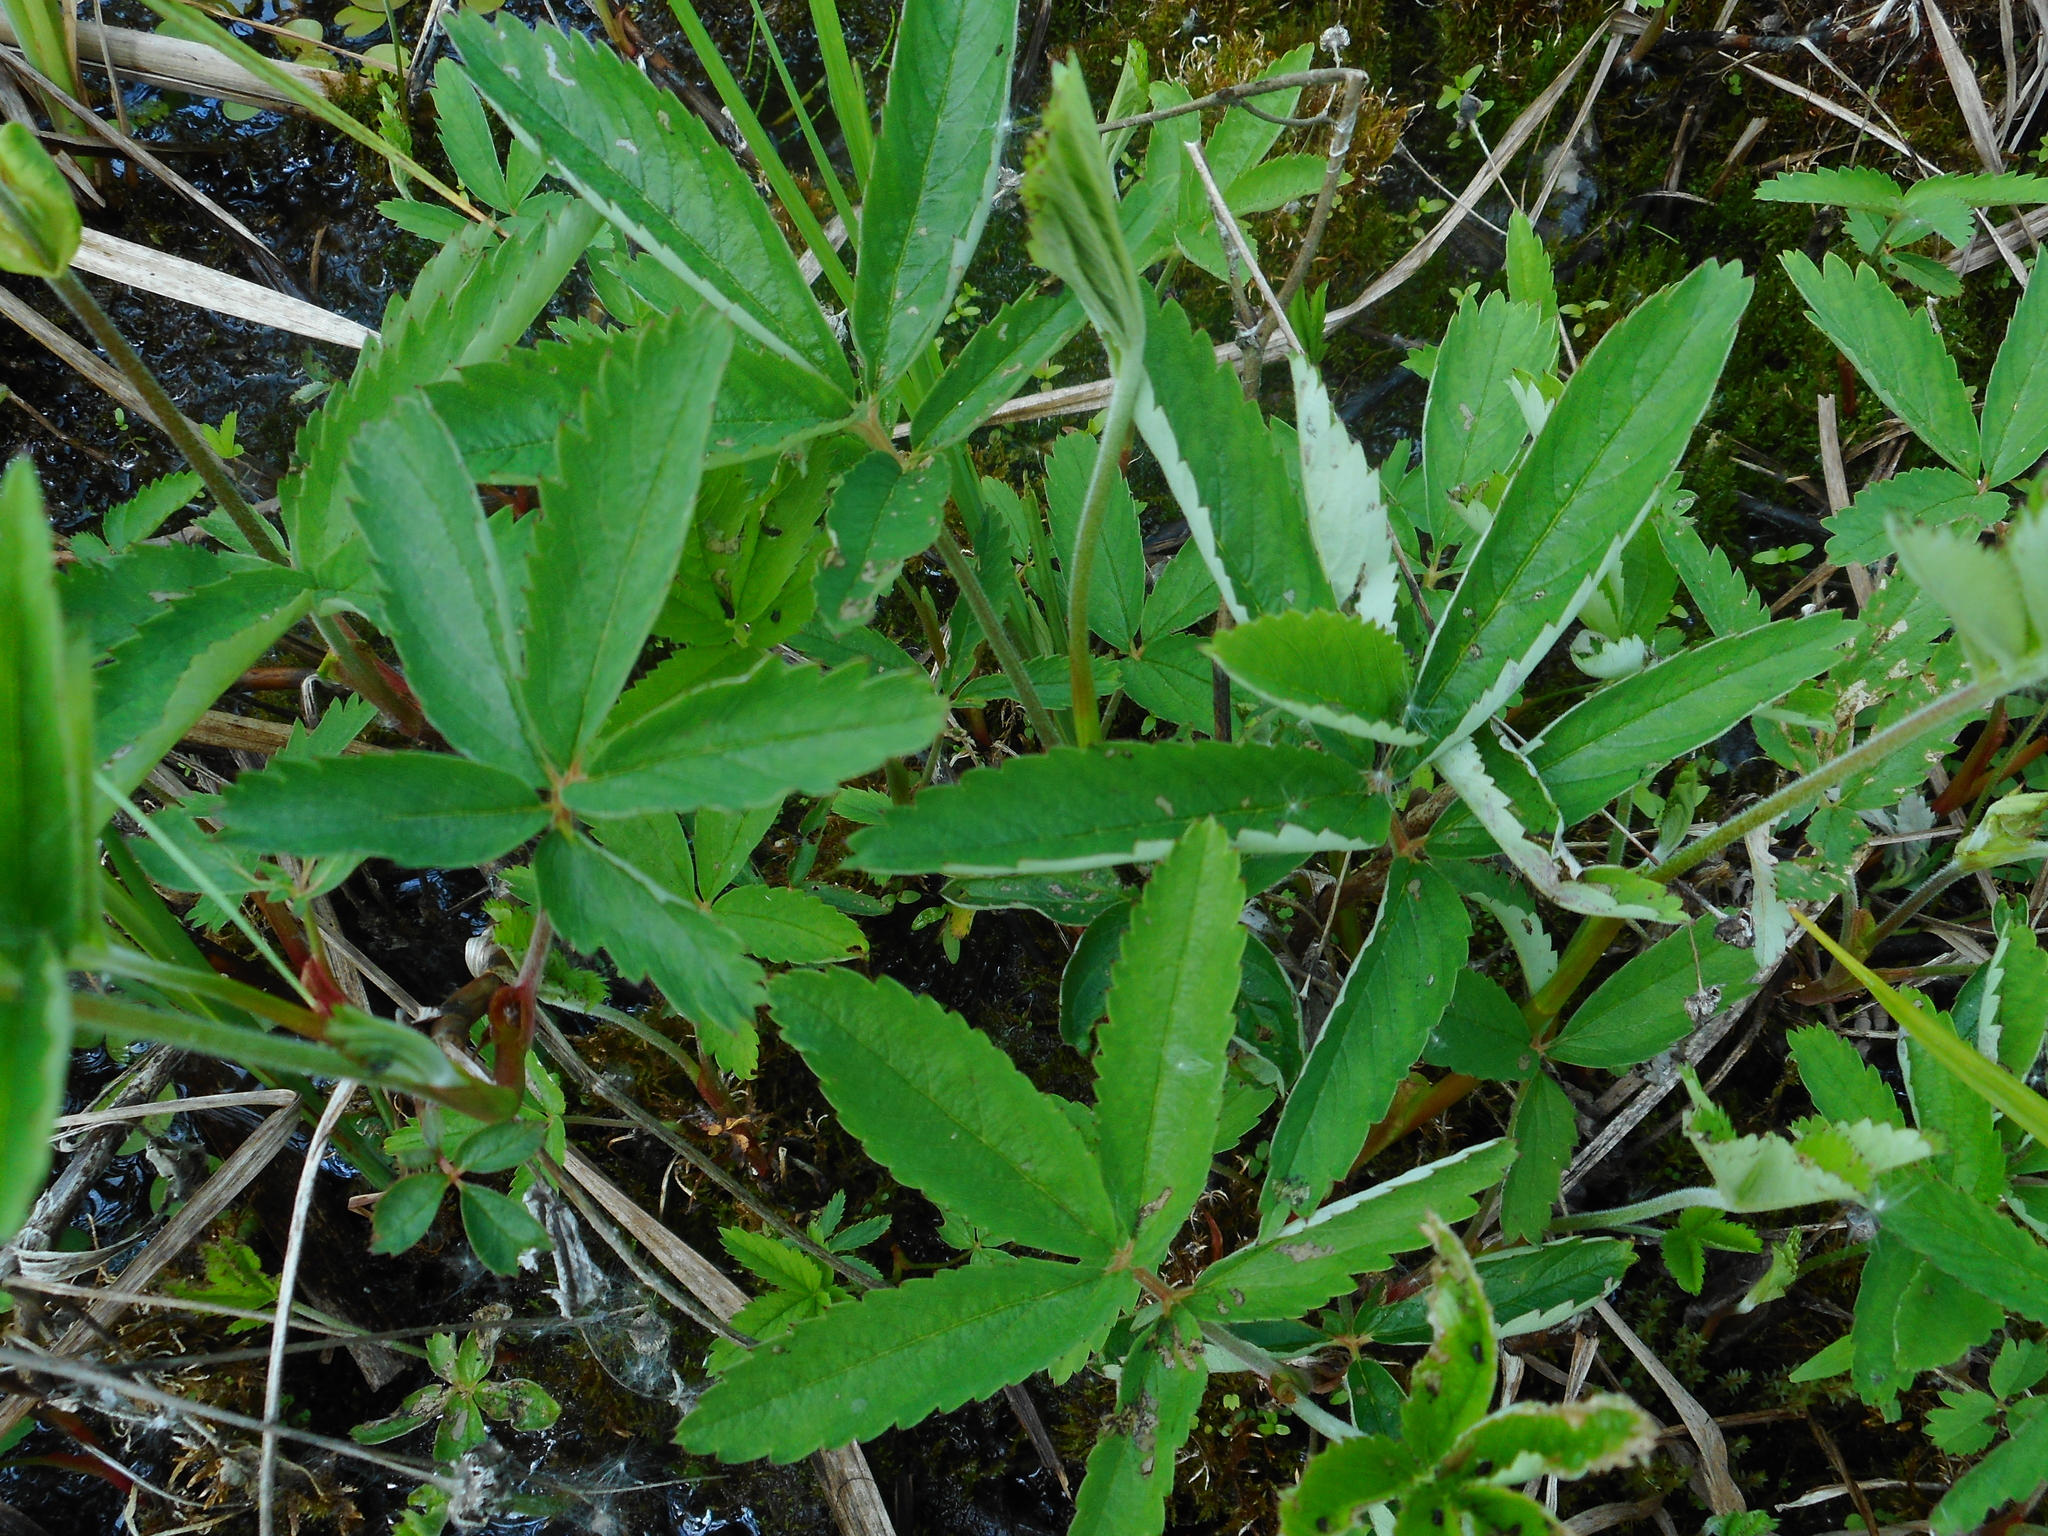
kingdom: Plantae
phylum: Tracheophyta
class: Magnoliopsida
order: Rosales
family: Rosaceae
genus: Comarum
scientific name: Comarum palustre
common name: Marsh cinquefoil
